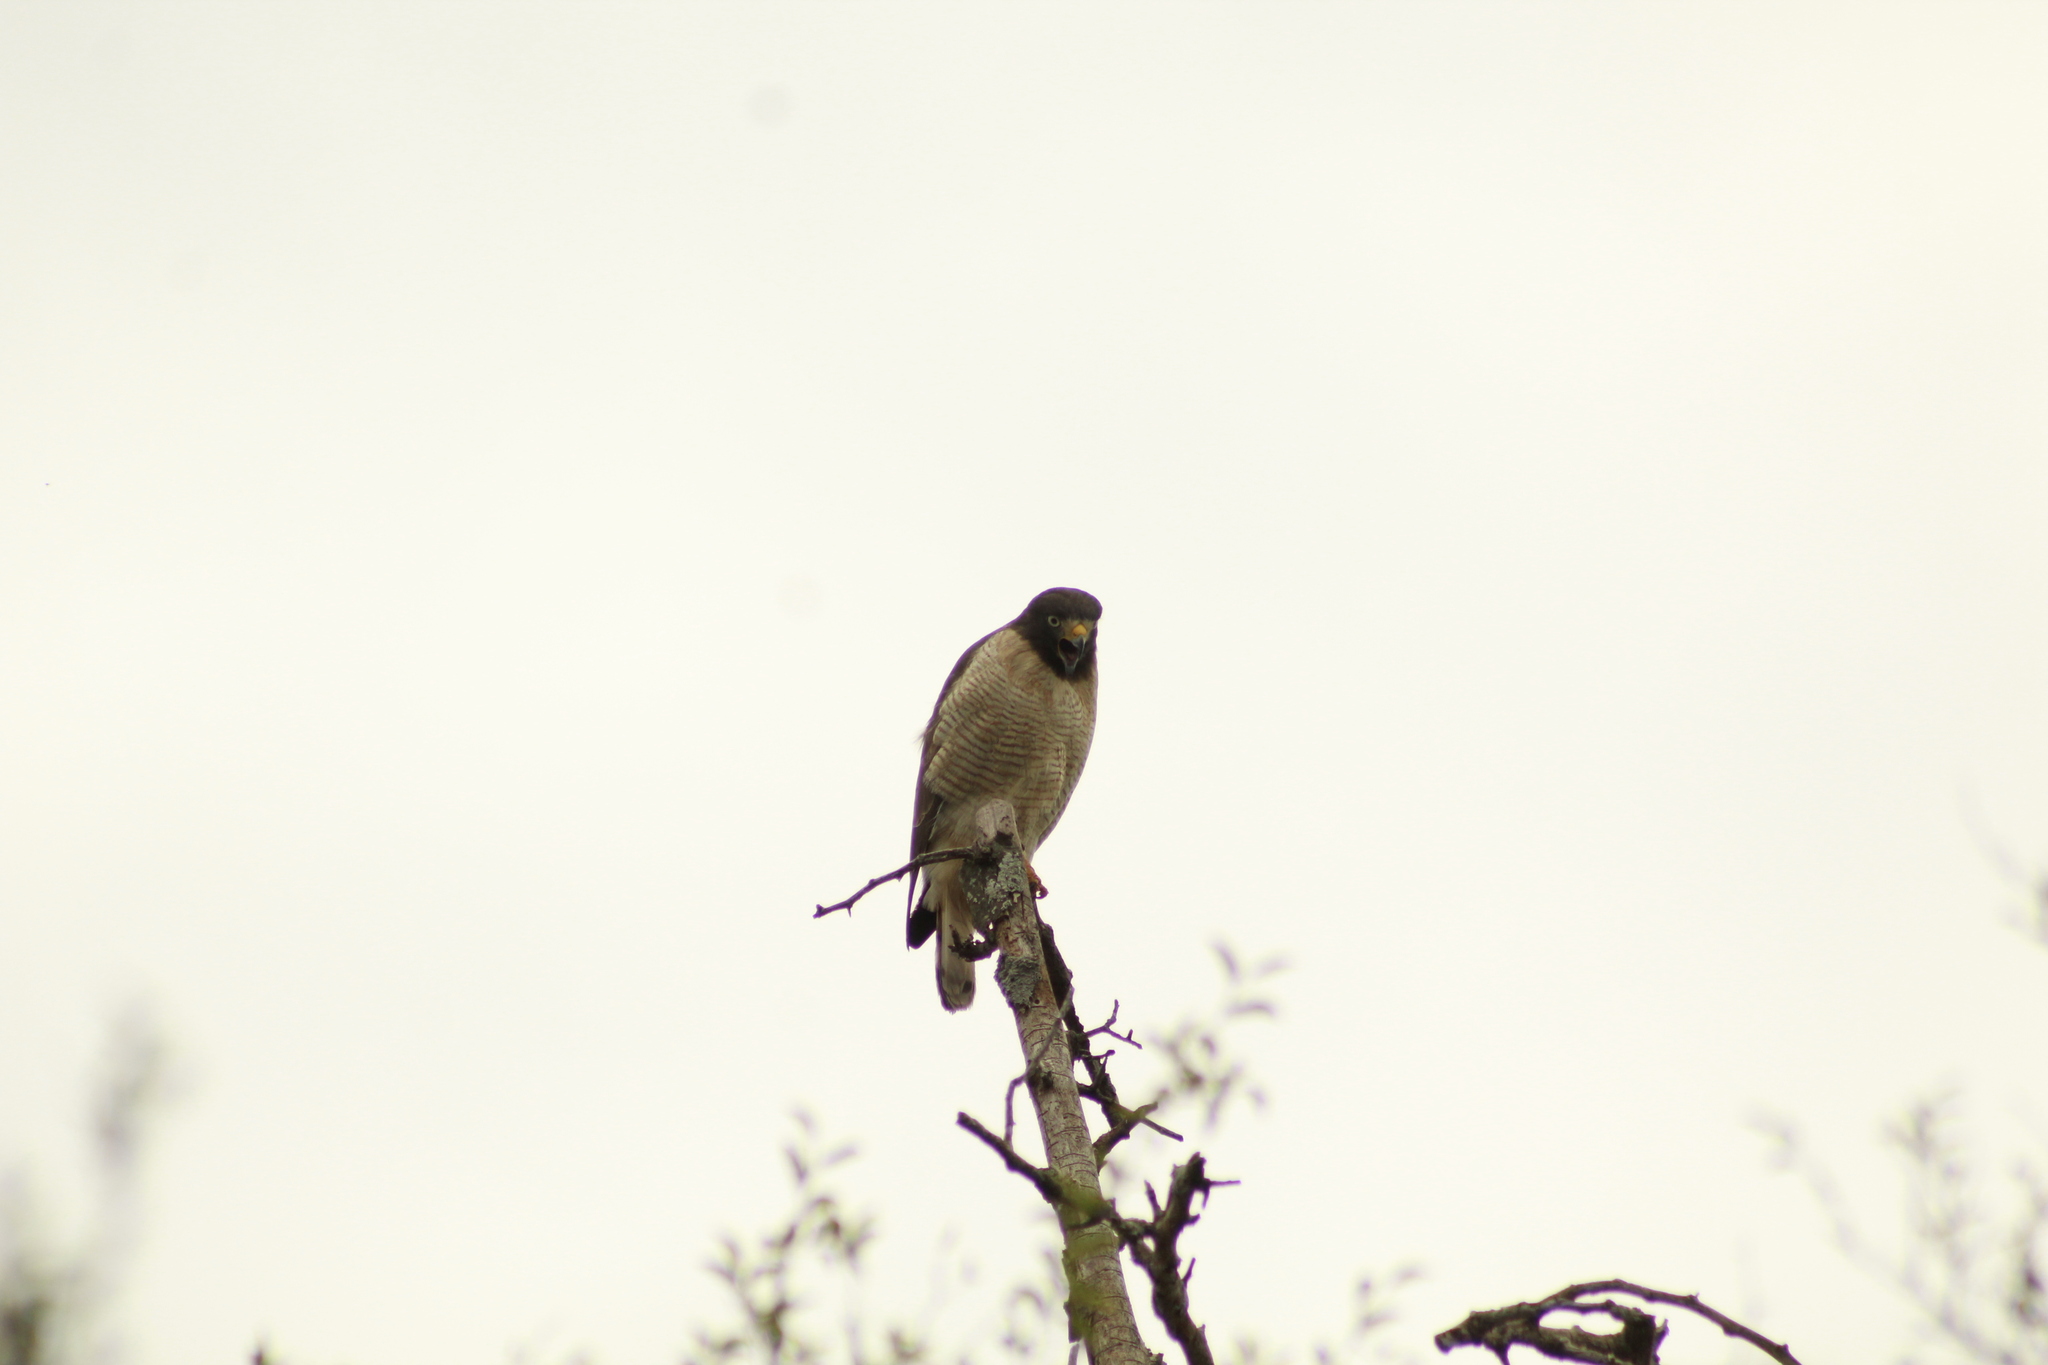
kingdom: Animalia
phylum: Chordata
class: Aves
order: Accipitriformes
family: Accipitridae
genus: Rupornis
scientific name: Rupornis magnirostris
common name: Roadside hawk
